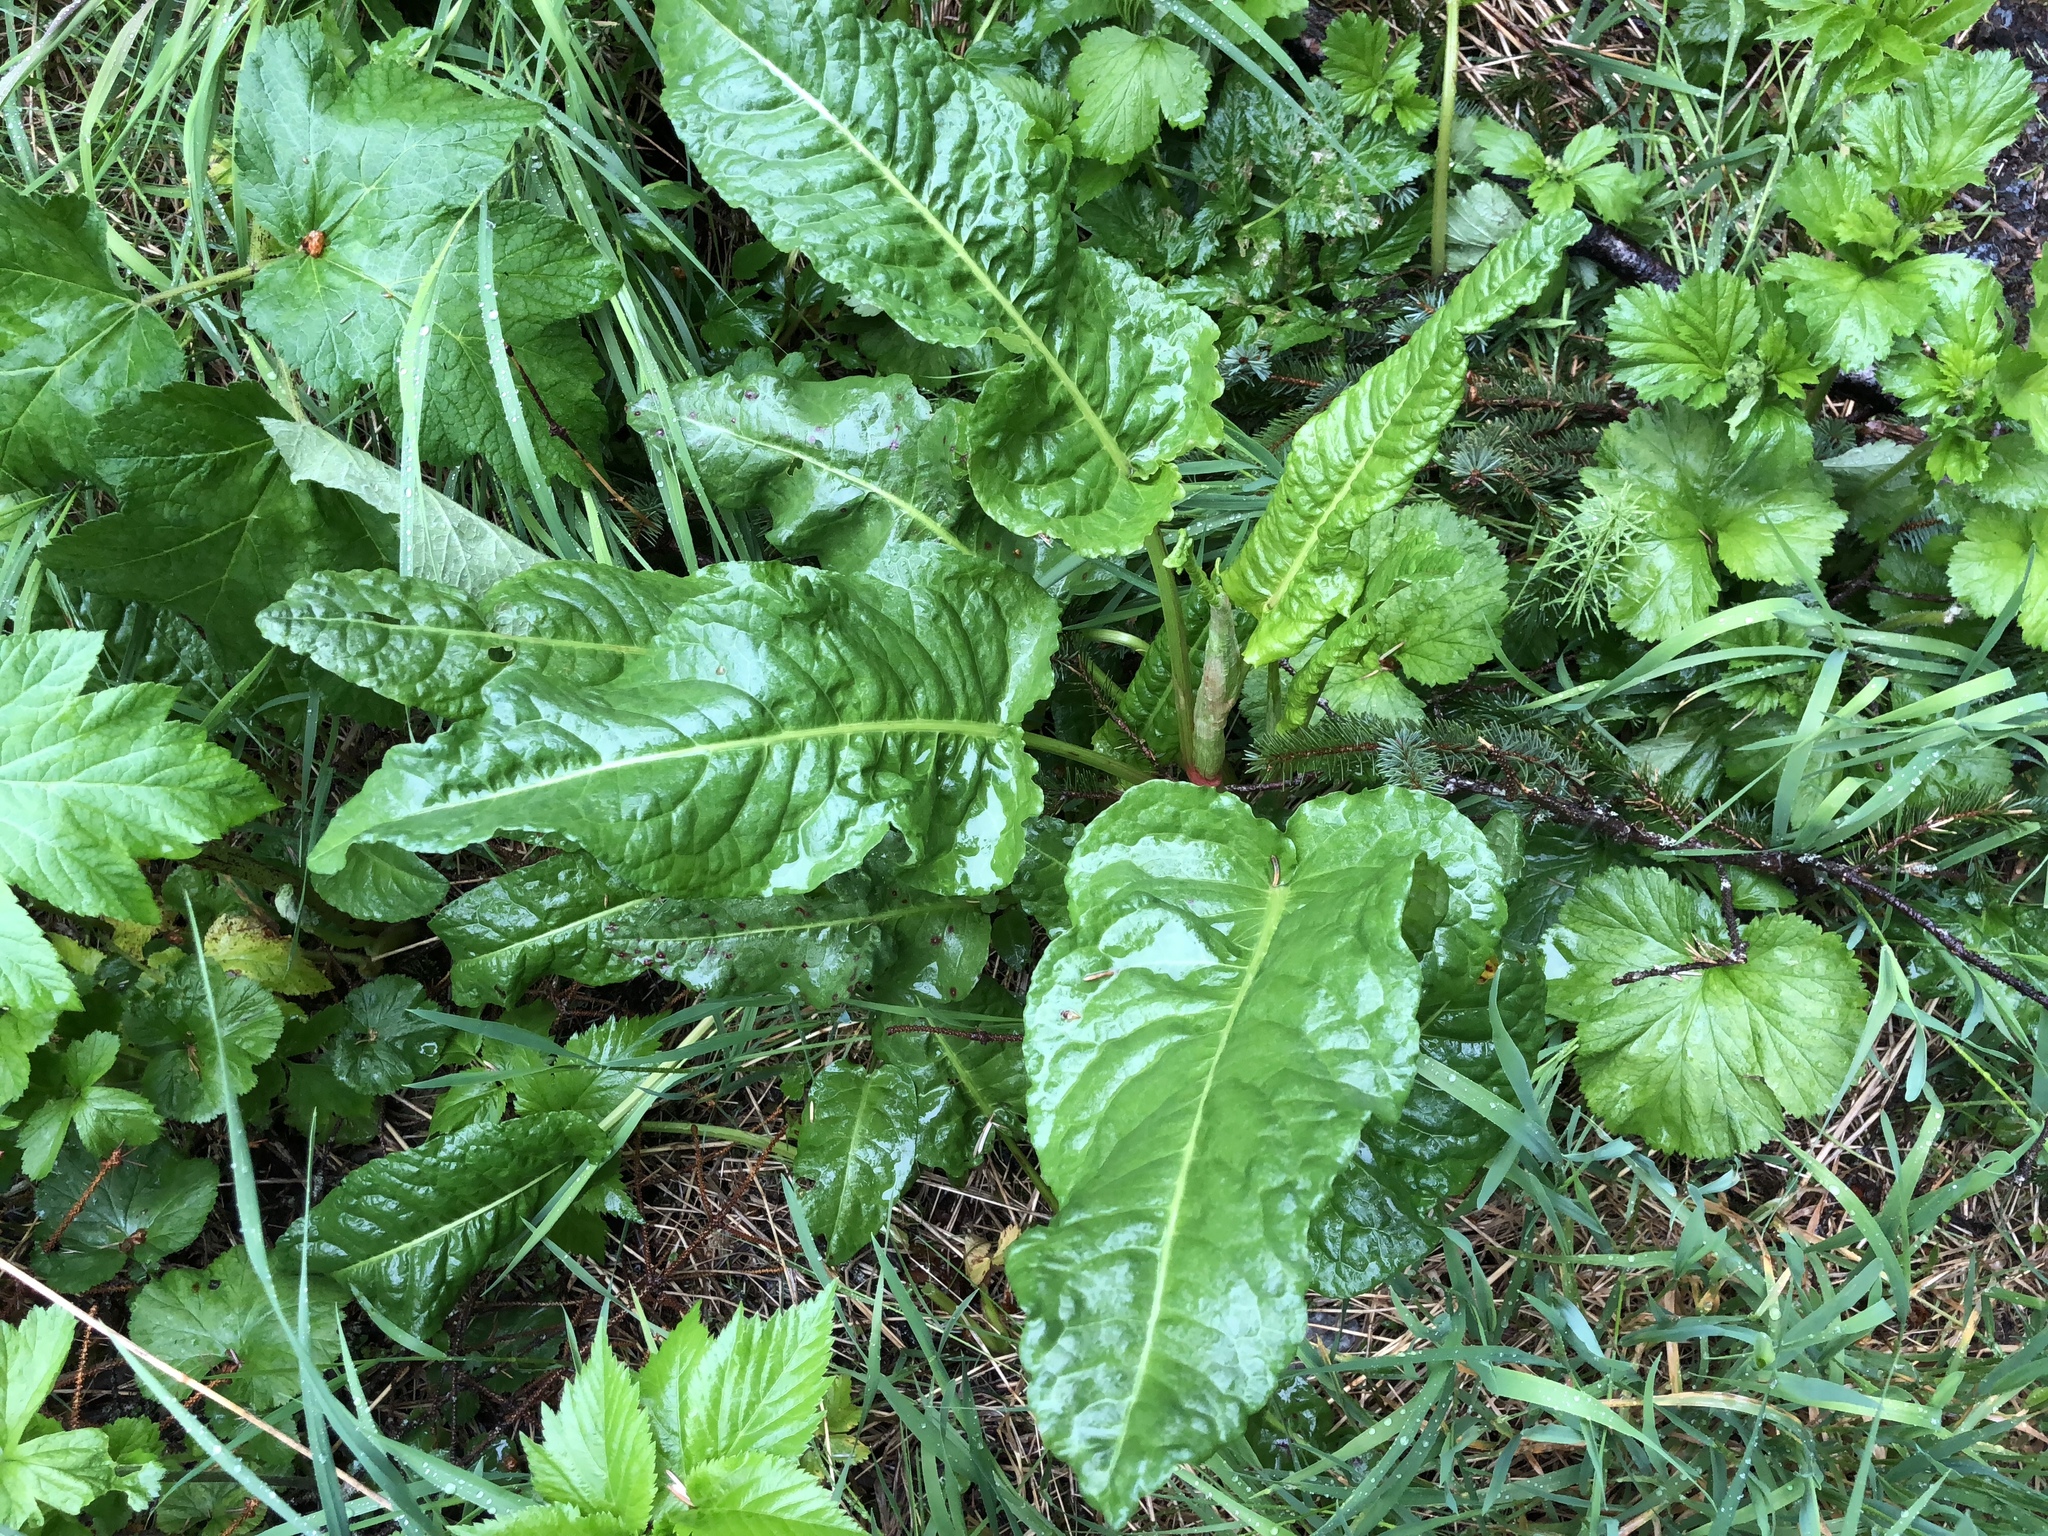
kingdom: Plantae
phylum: Tracheophyta
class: Magnoliopsida
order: Caryophyllales
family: Polygonaceae
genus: Rumex
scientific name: Rumex obtusifolius
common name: Bitter dock
